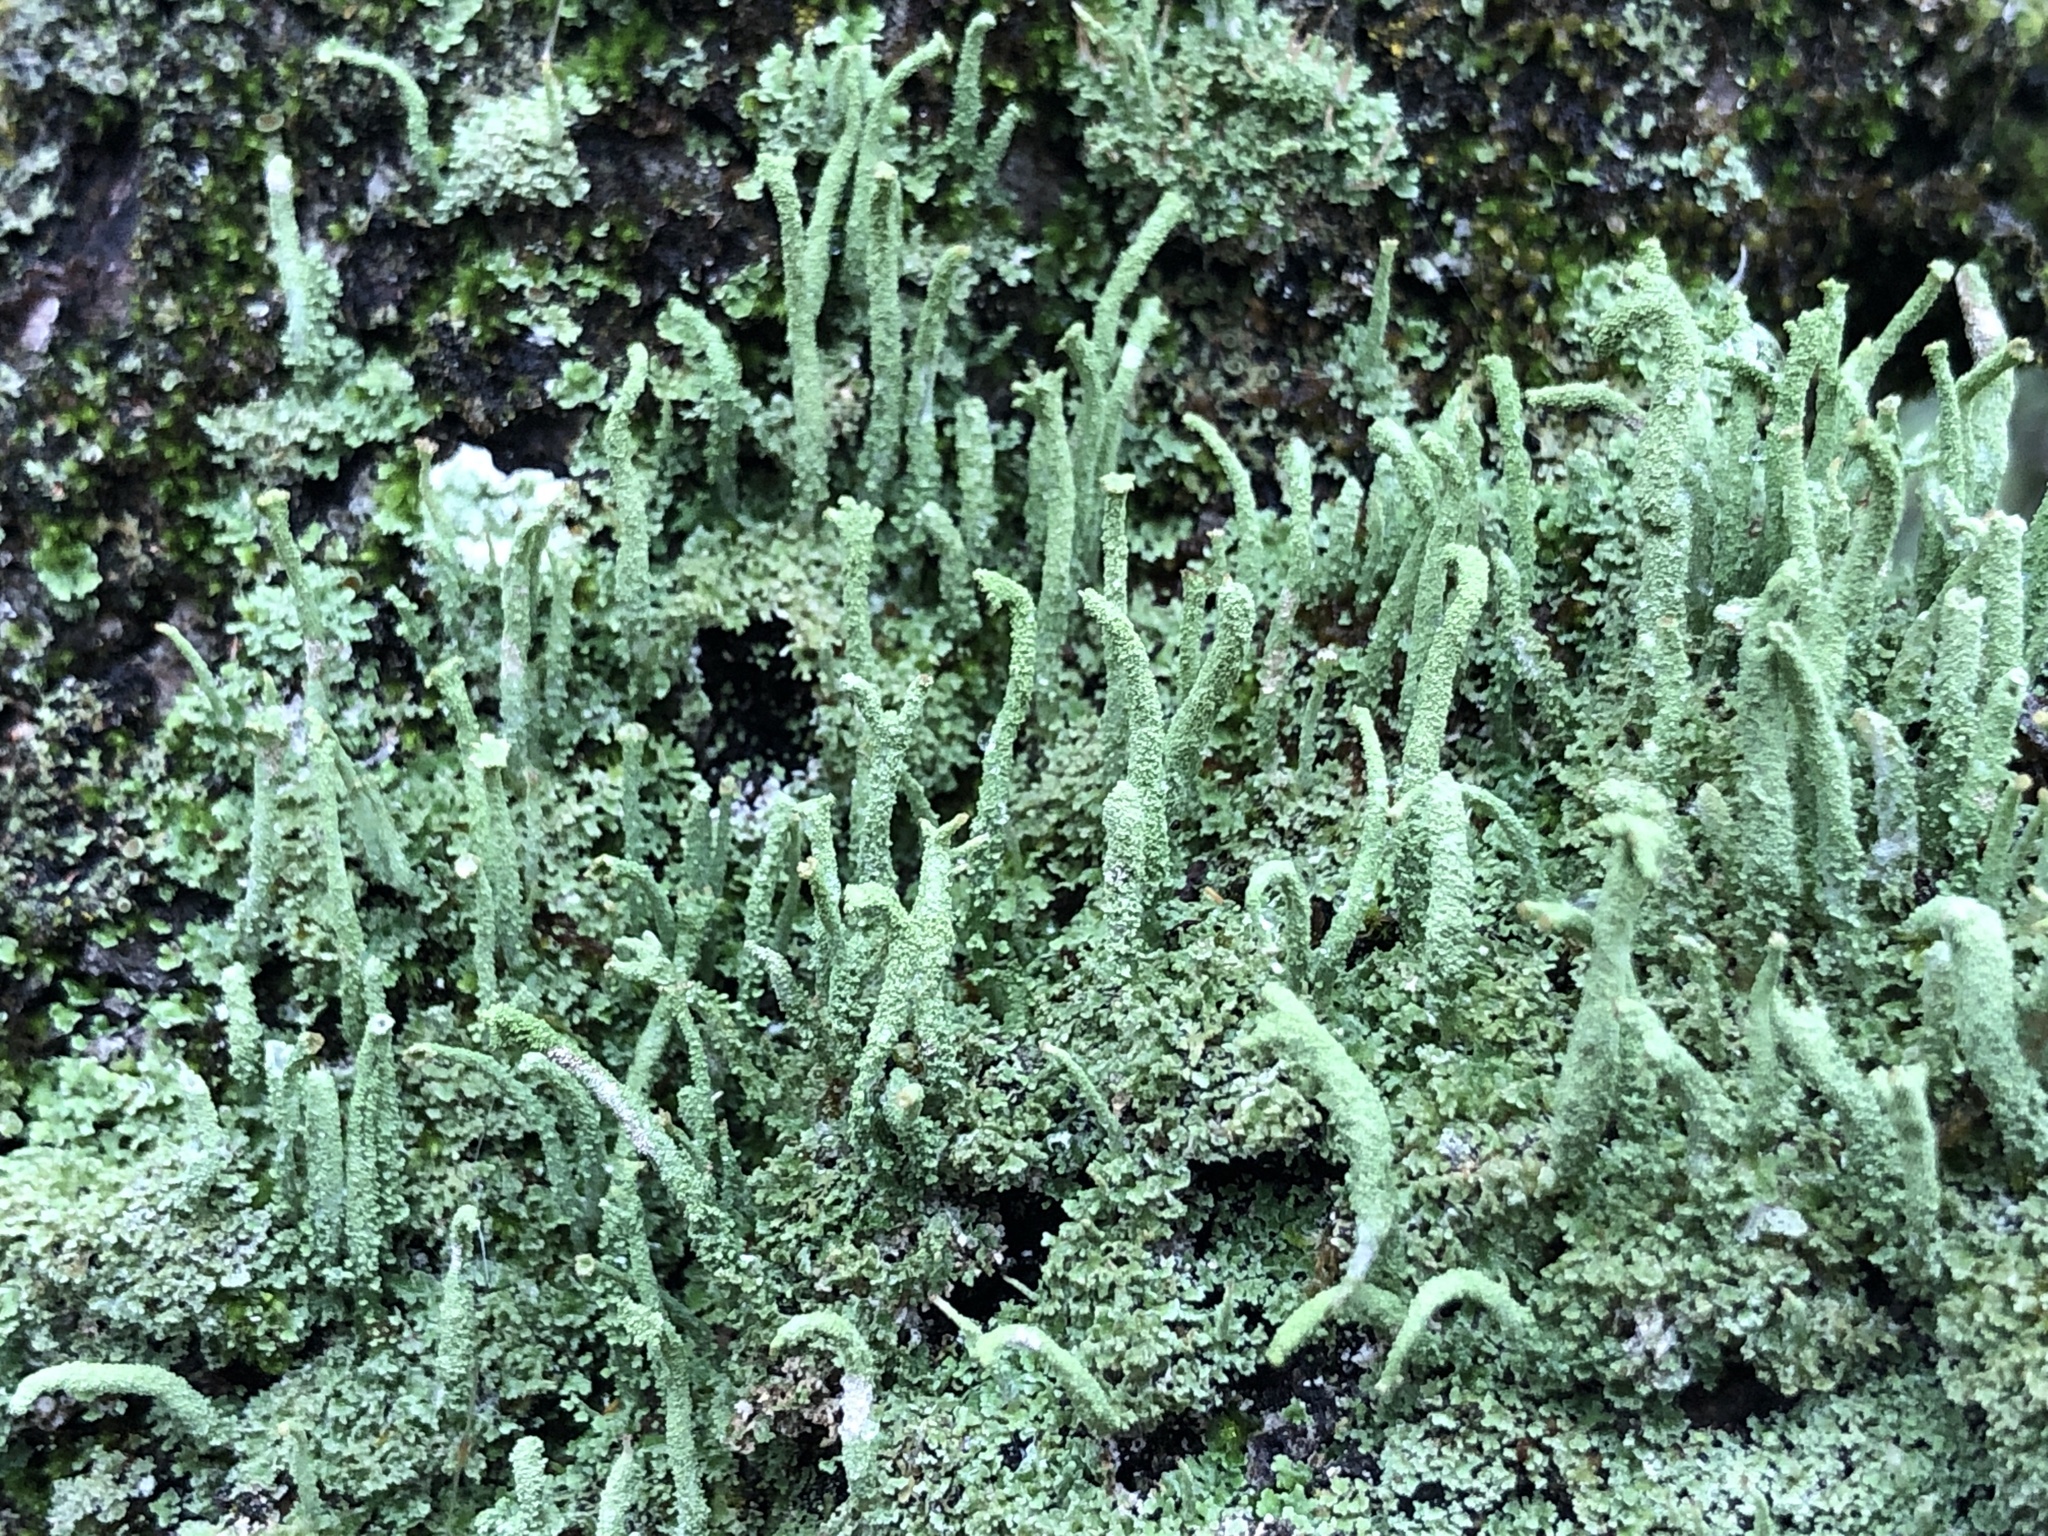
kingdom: Fungi
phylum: Ascomycota
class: Lecanoromycetes
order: Lecanorales
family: Cladoniaceae
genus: Cladonia
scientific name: Cladonia coniocraea
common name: Common powderhorn
